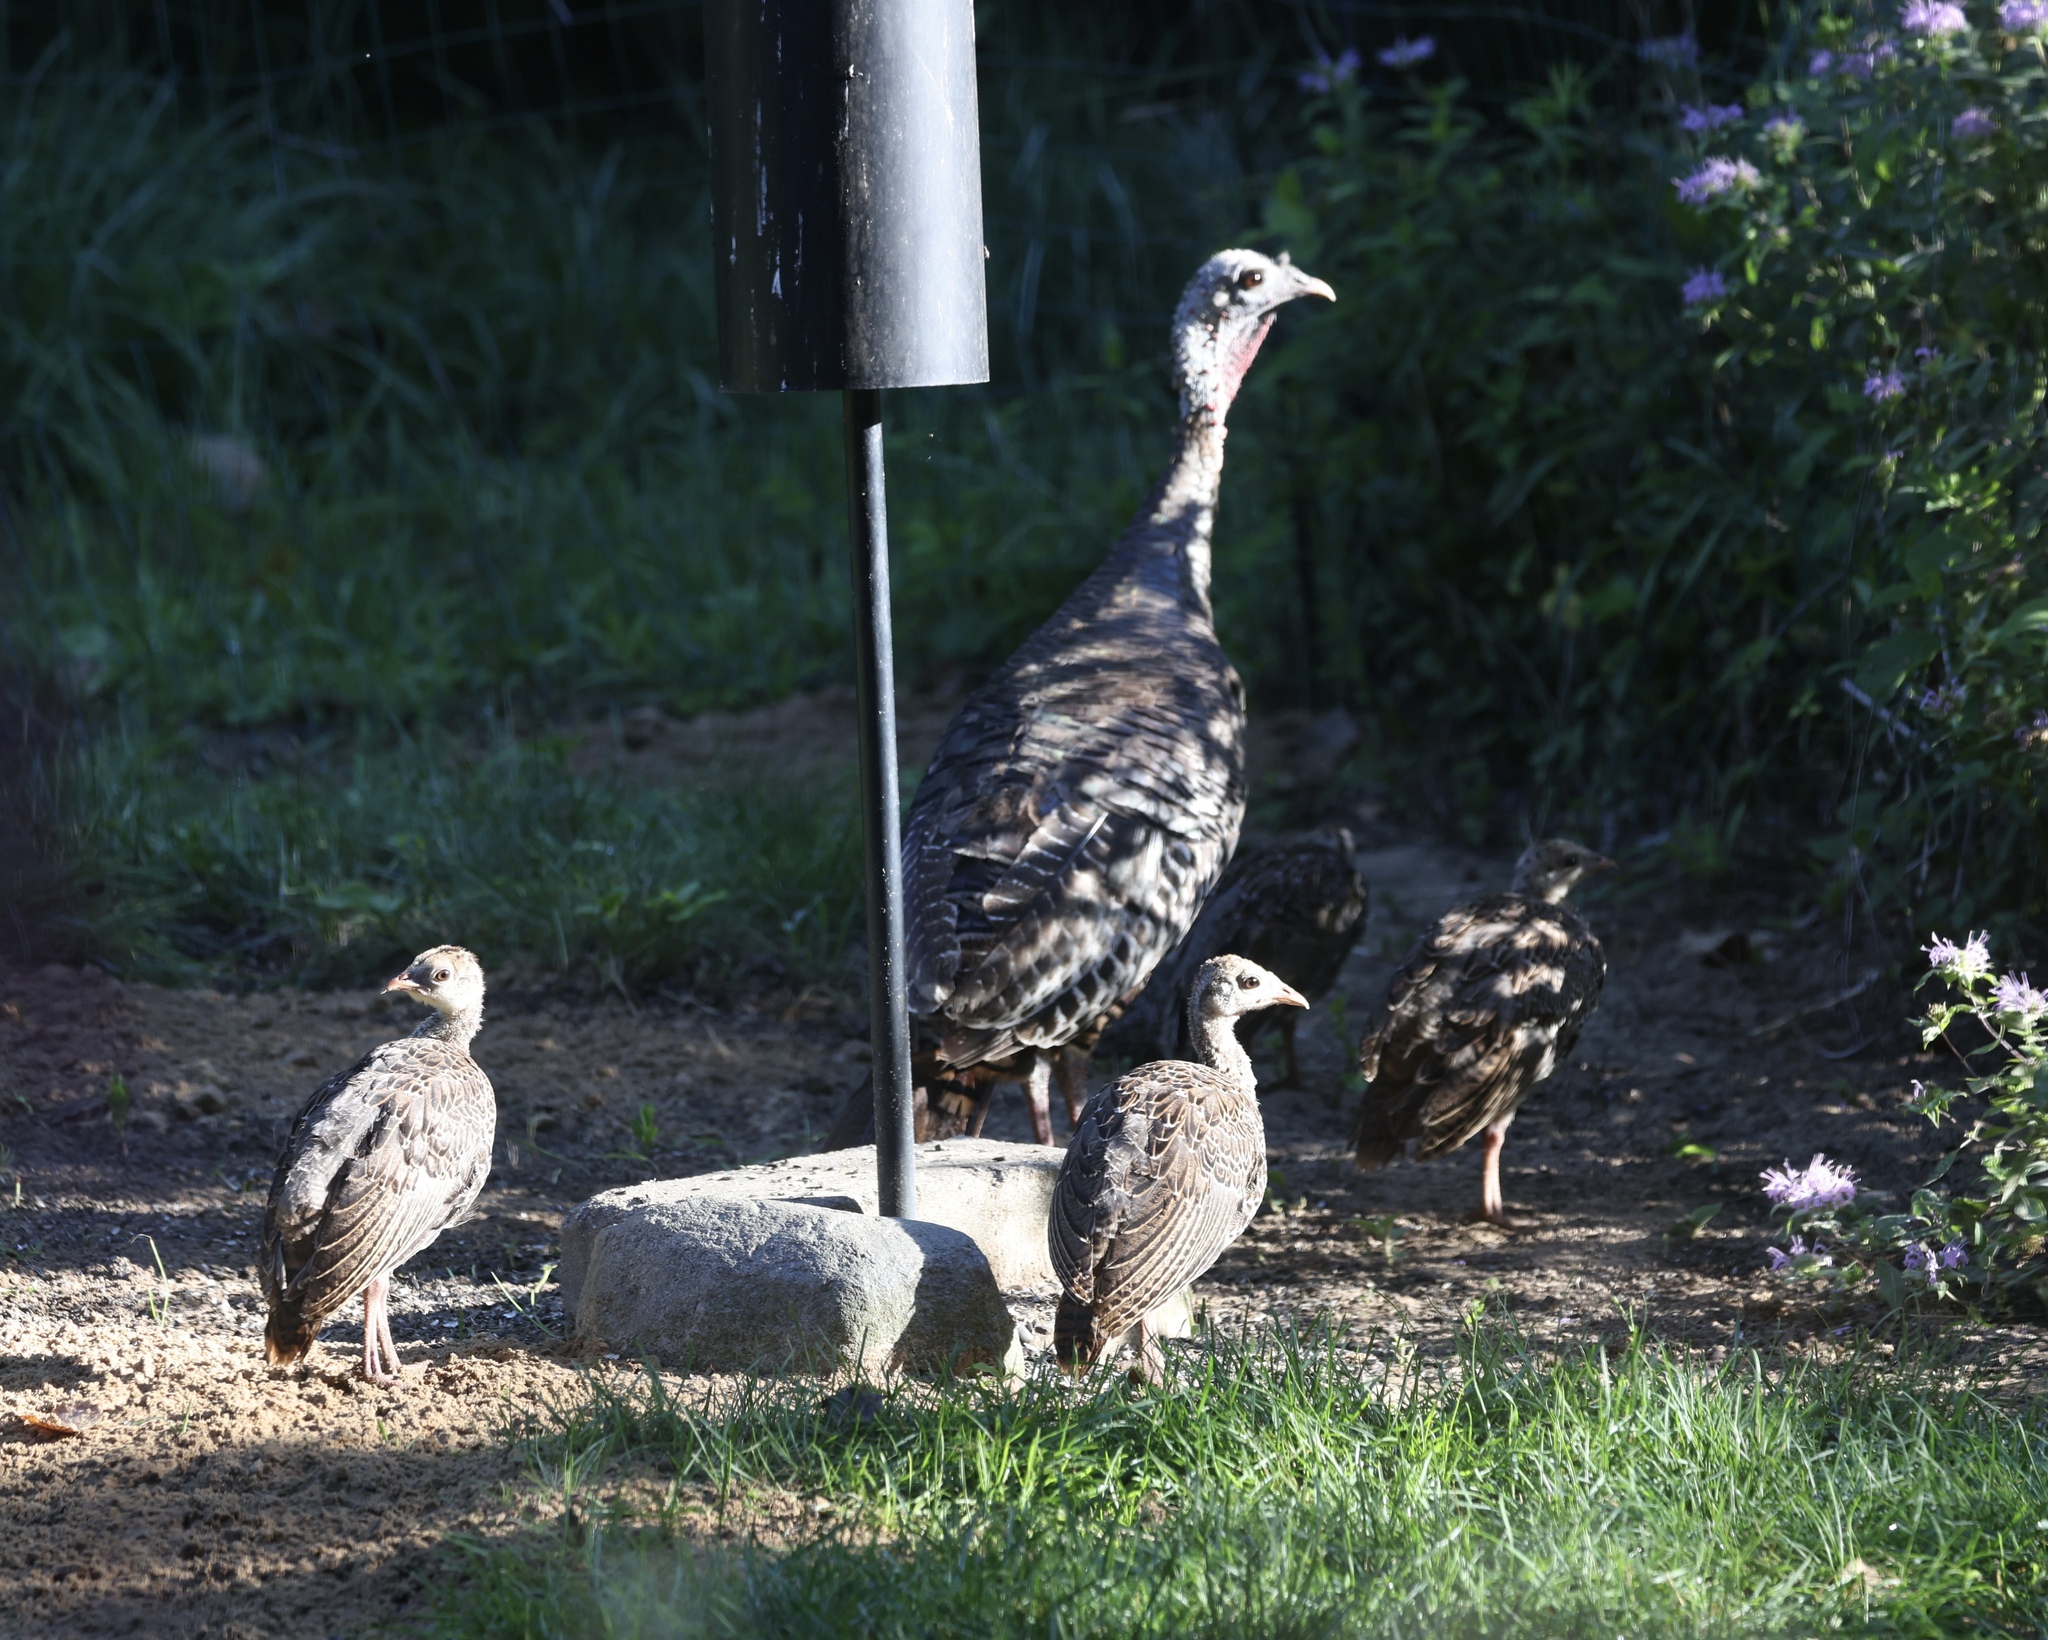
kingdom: Animalia
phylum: Chordata
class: Aves
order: Galliformes
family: Phasianidae
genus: Meleagris
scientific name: Meleagris gallopavo
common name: Wild turkey
